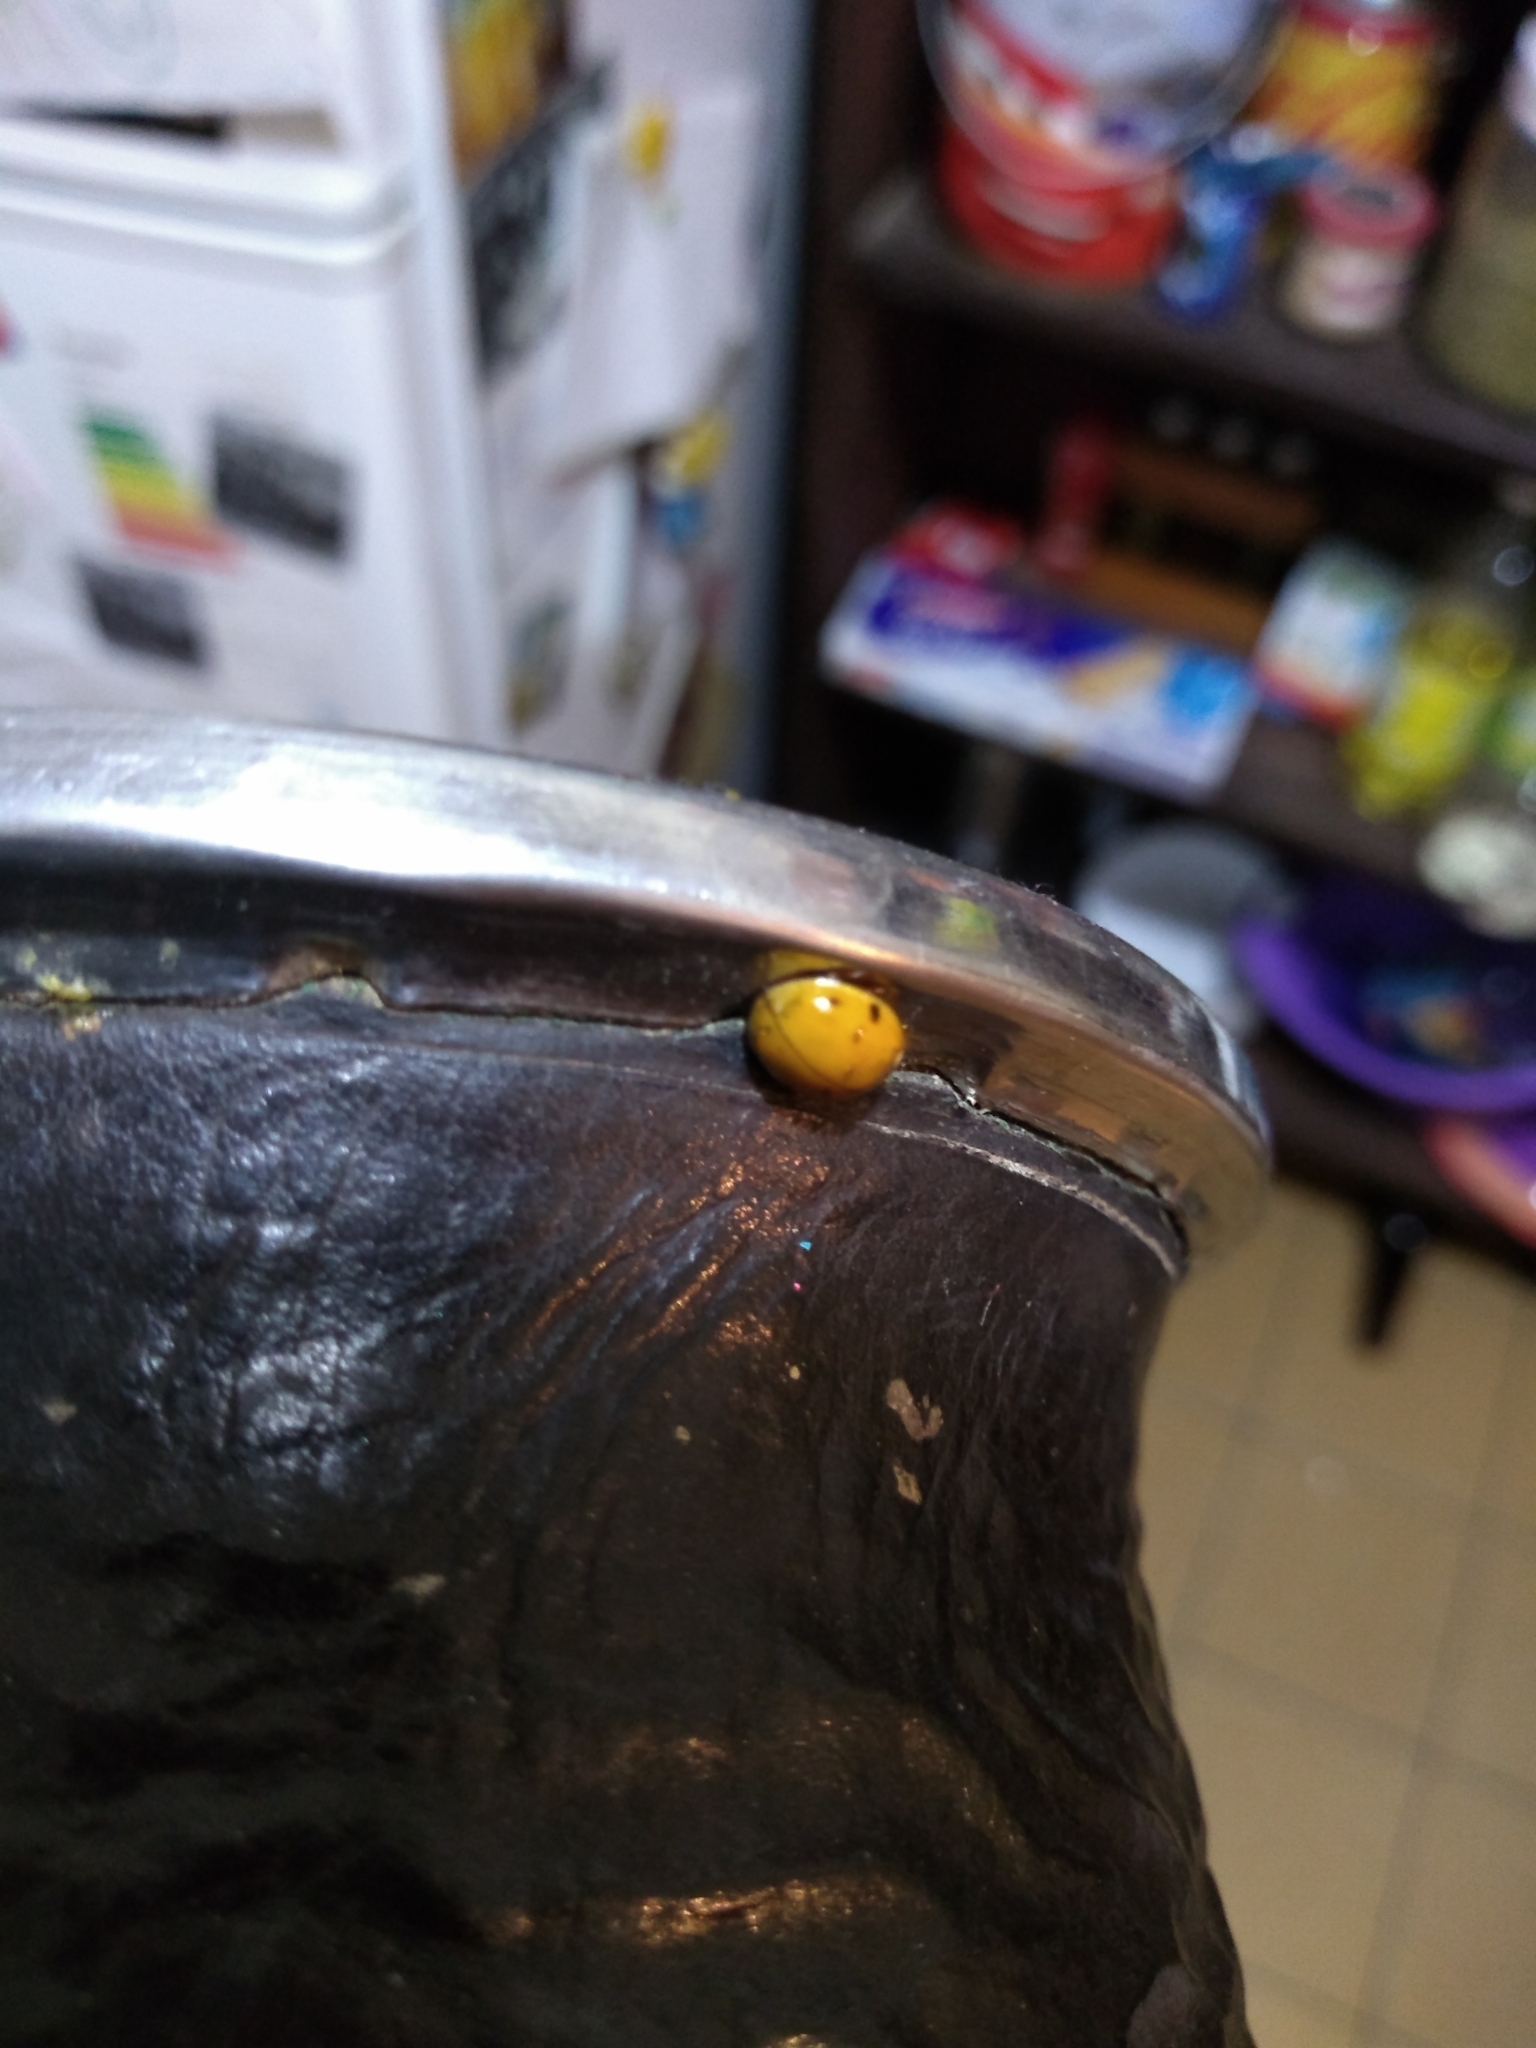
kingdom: Animalia
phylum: Arthropoda
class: Insecta
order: Coleoptera
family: Coccinellidae
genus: Harmonia
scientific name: Harmonia axyridis
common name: Harlequin ladybird
